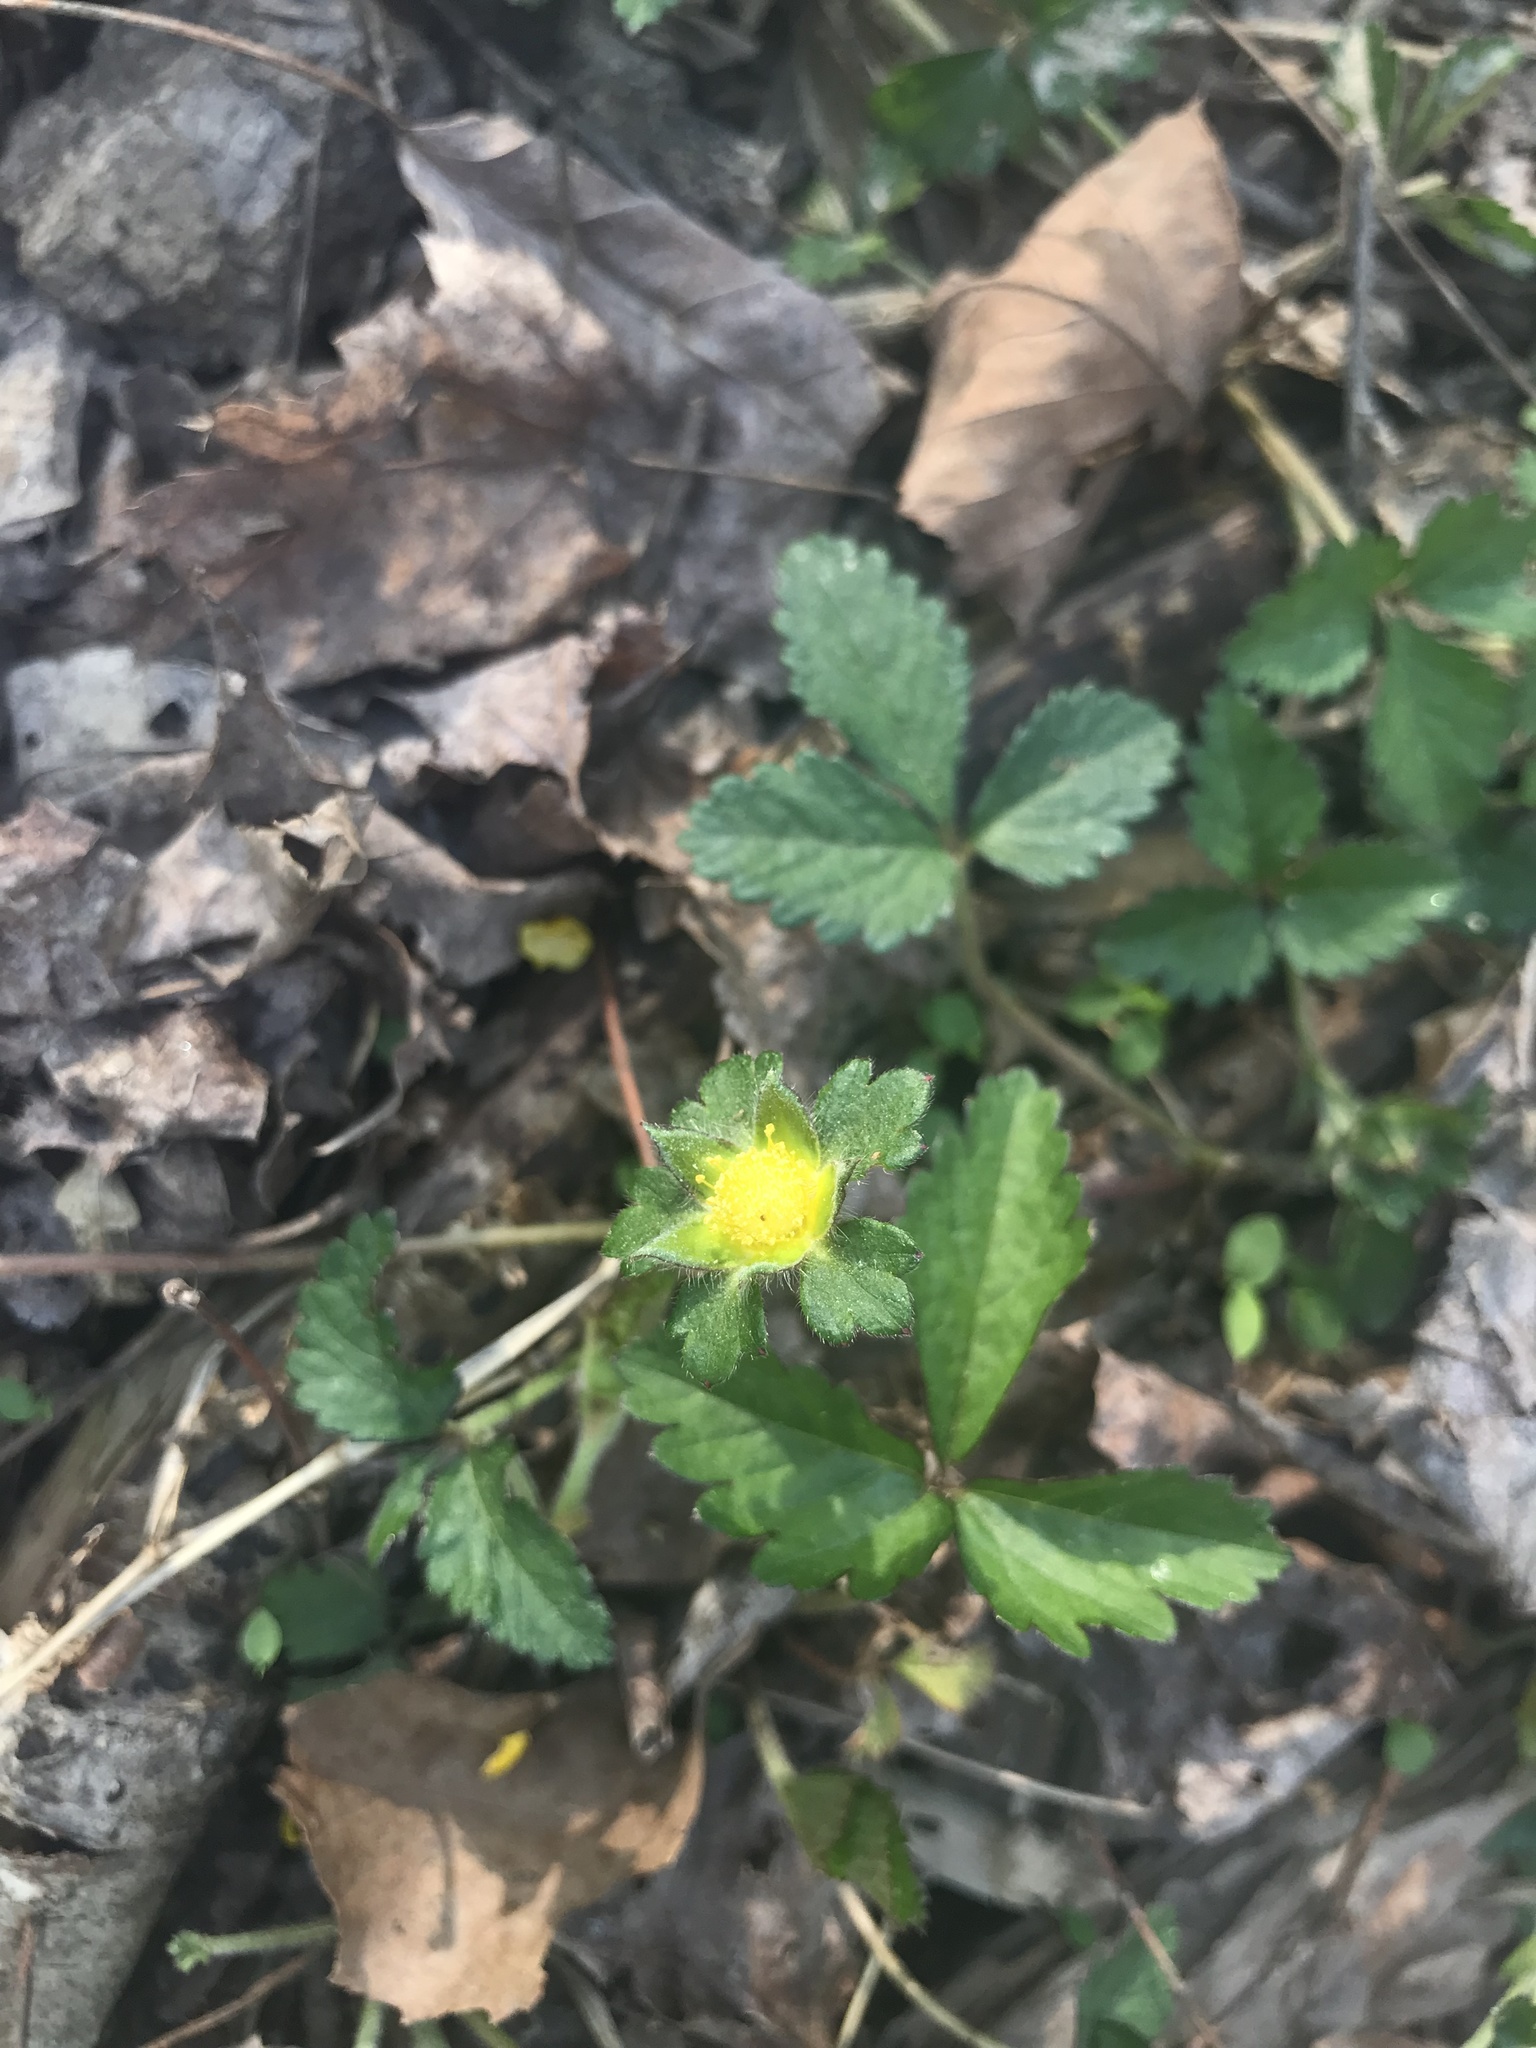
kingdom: Plantae
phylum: Tracheophyta
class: Magnoliopsida
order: Rosales
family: Rosaceae
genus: Potentilla
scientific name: Potentilla indica
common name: Yellow-flowered strawberry
